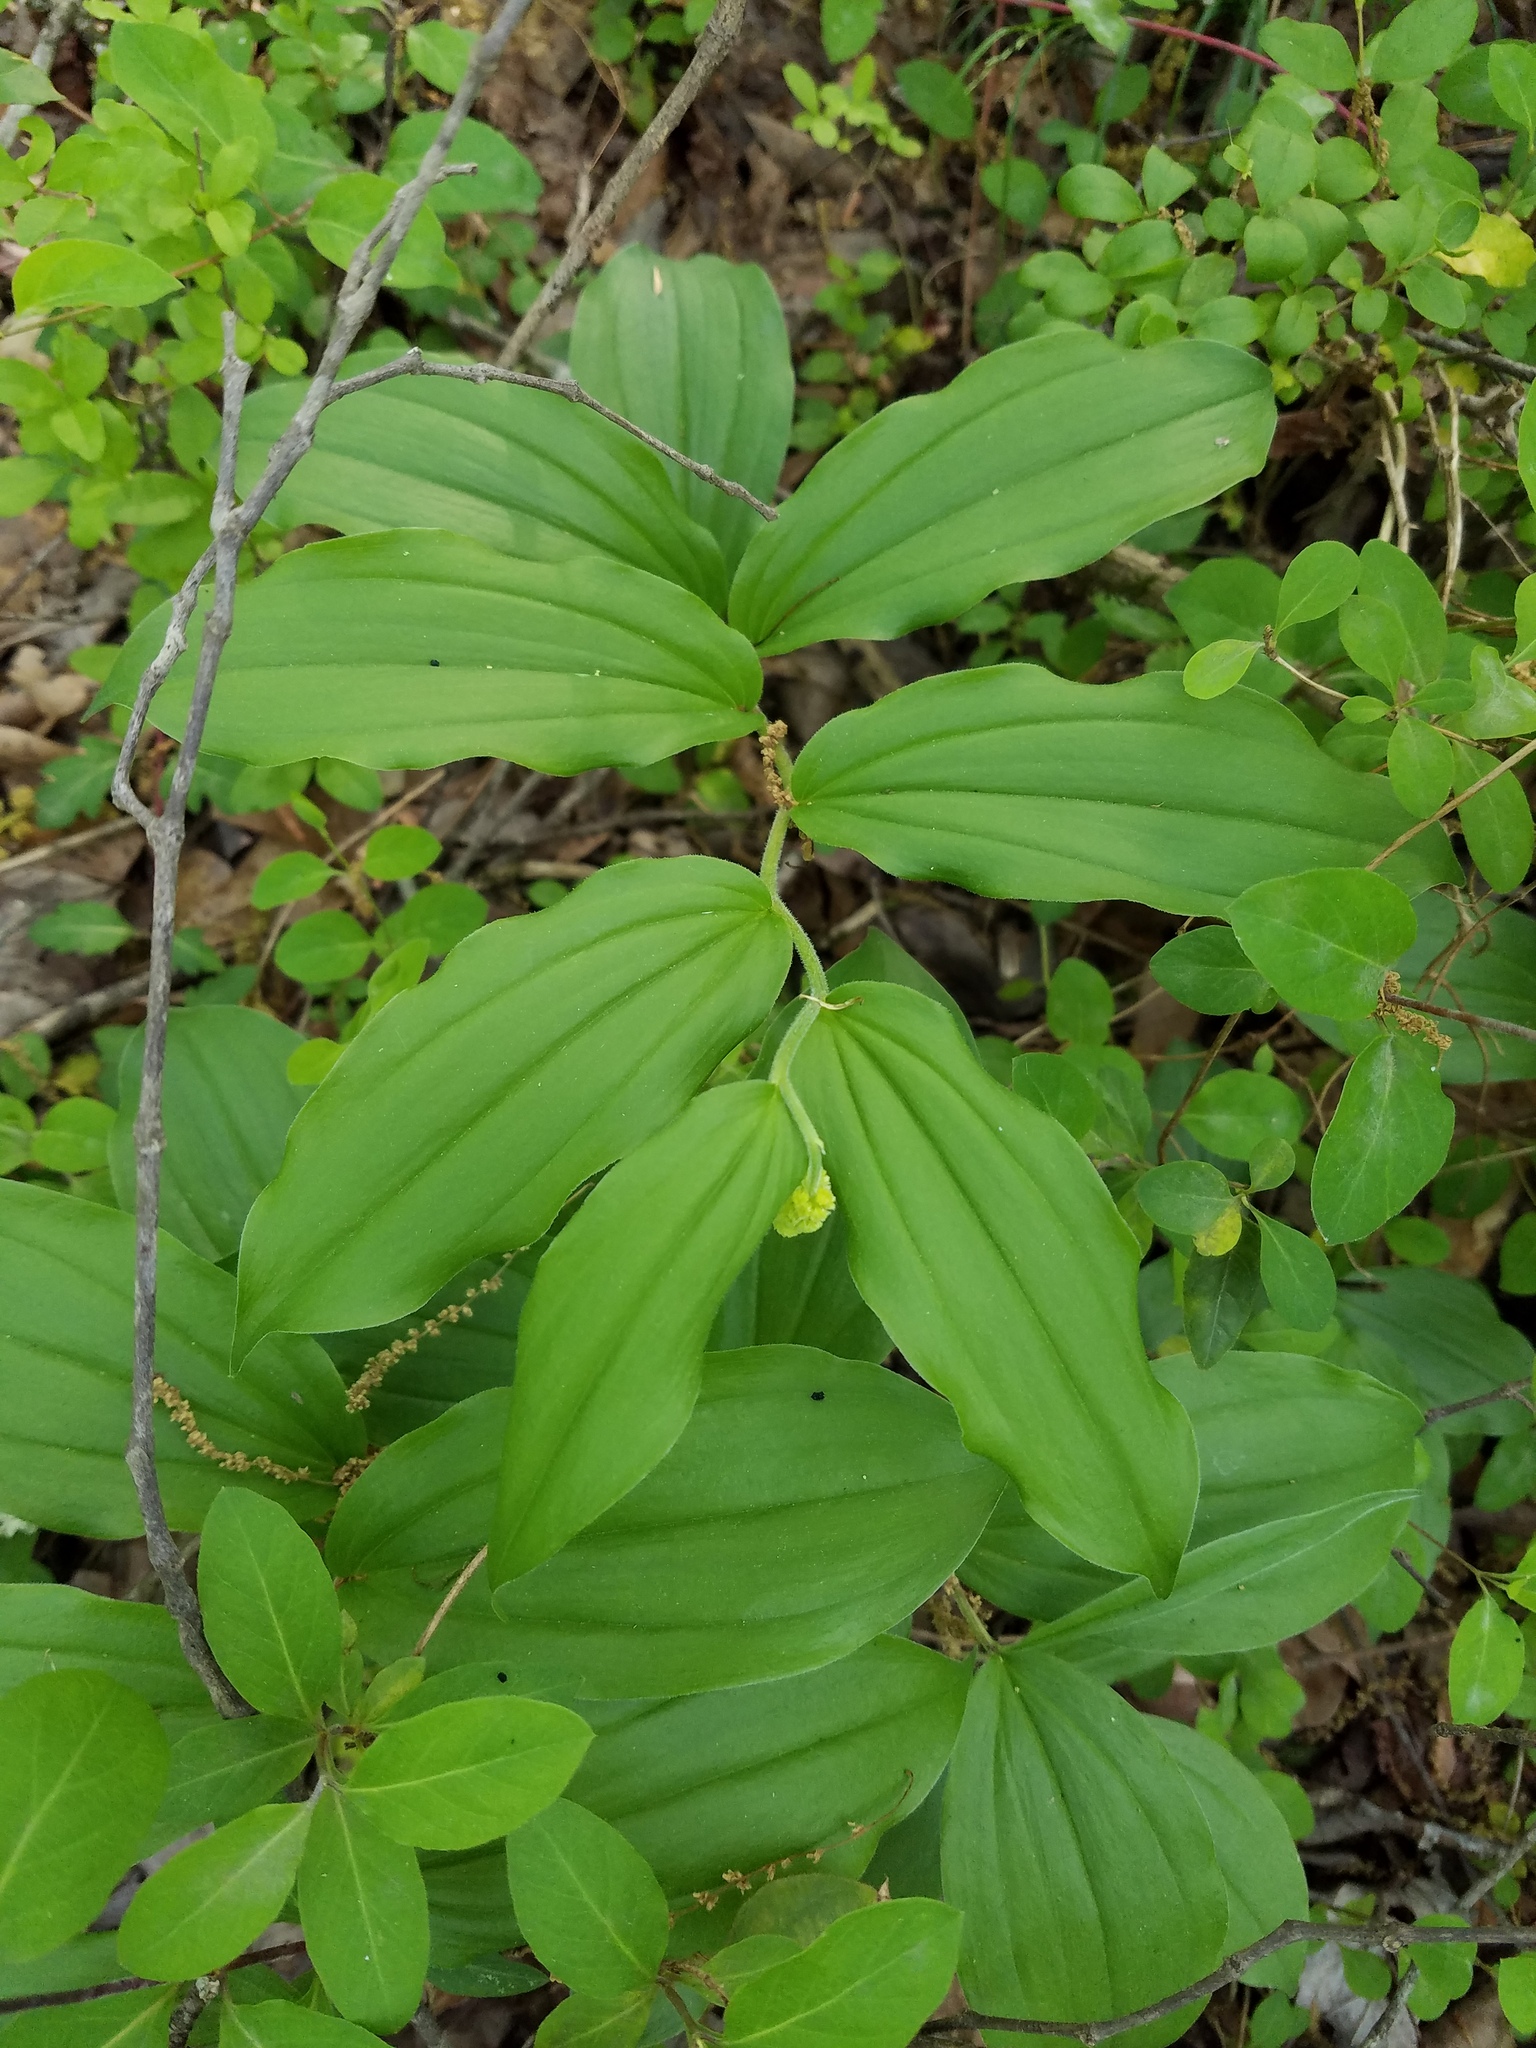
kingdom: Plantae
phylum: Tracheophyta
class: Liliopsida
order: Asparagales
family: Asparagaceae
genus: Maianthemum
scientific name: Maianthemum racemosum
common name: False spikenard
